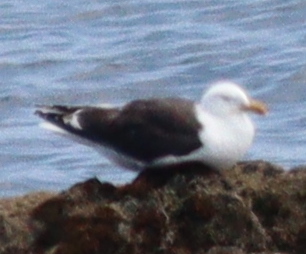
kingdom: Animalia
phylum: Chordata
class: Aves
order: Charadriiformes
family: Laridae
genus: Larus
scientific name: Larus marinus
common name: Great black-backed gull
